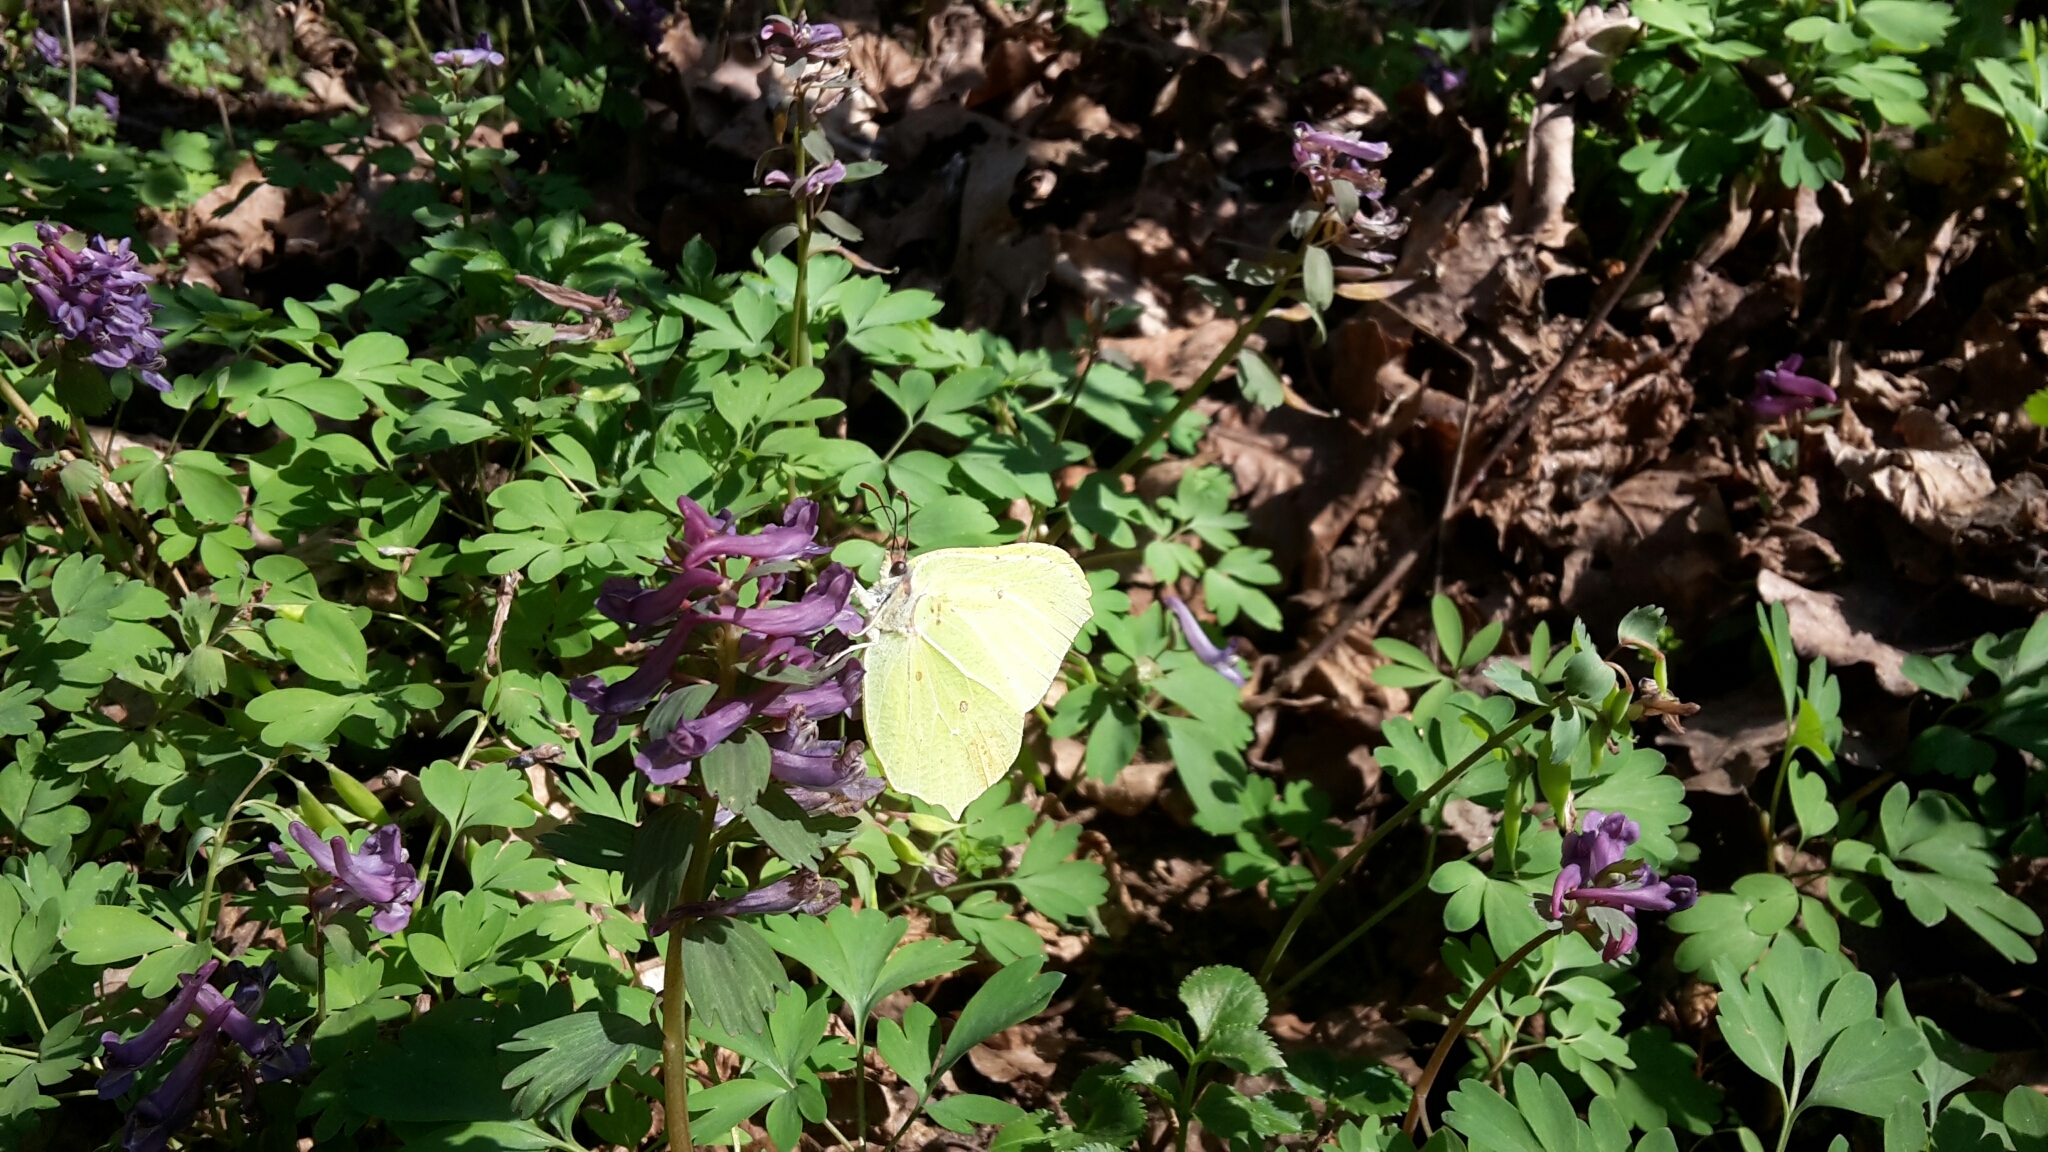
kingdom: Animalia
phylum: Arthropoda
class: Insecta
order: Lepidoptera
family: Pieridae
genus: Gonepteryx
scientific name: Gonepteryx rhamni
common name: Brimstone
